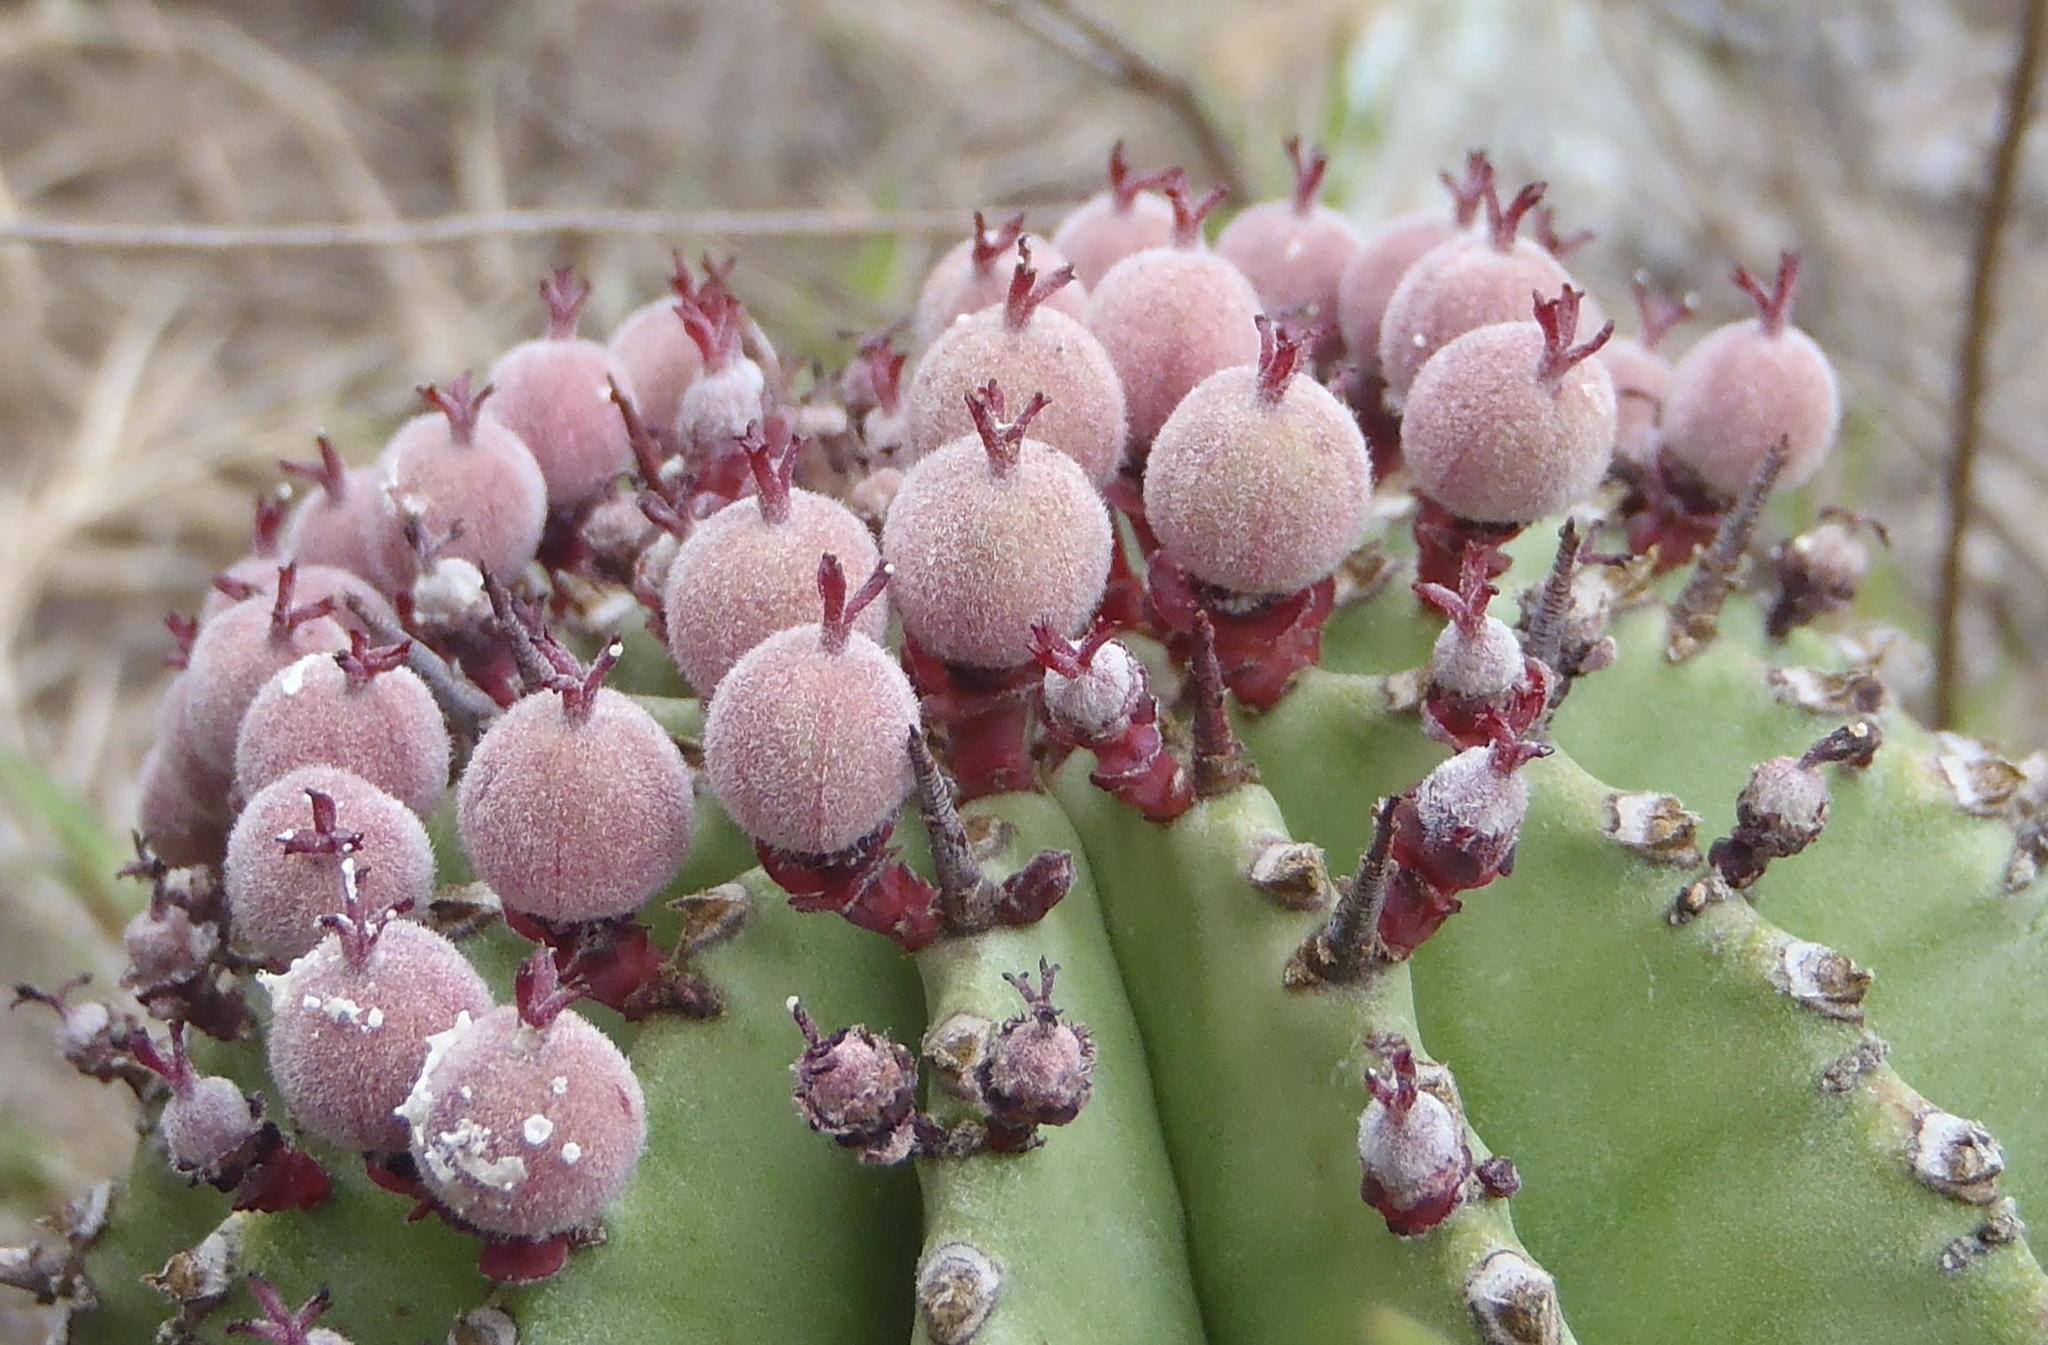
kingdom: Plantae
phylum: Tracheophyta
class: Magnoliopsida
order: Malpighiales
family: Euphorbiaceae
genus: Euphorbia
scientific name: Euphorbia polygona
